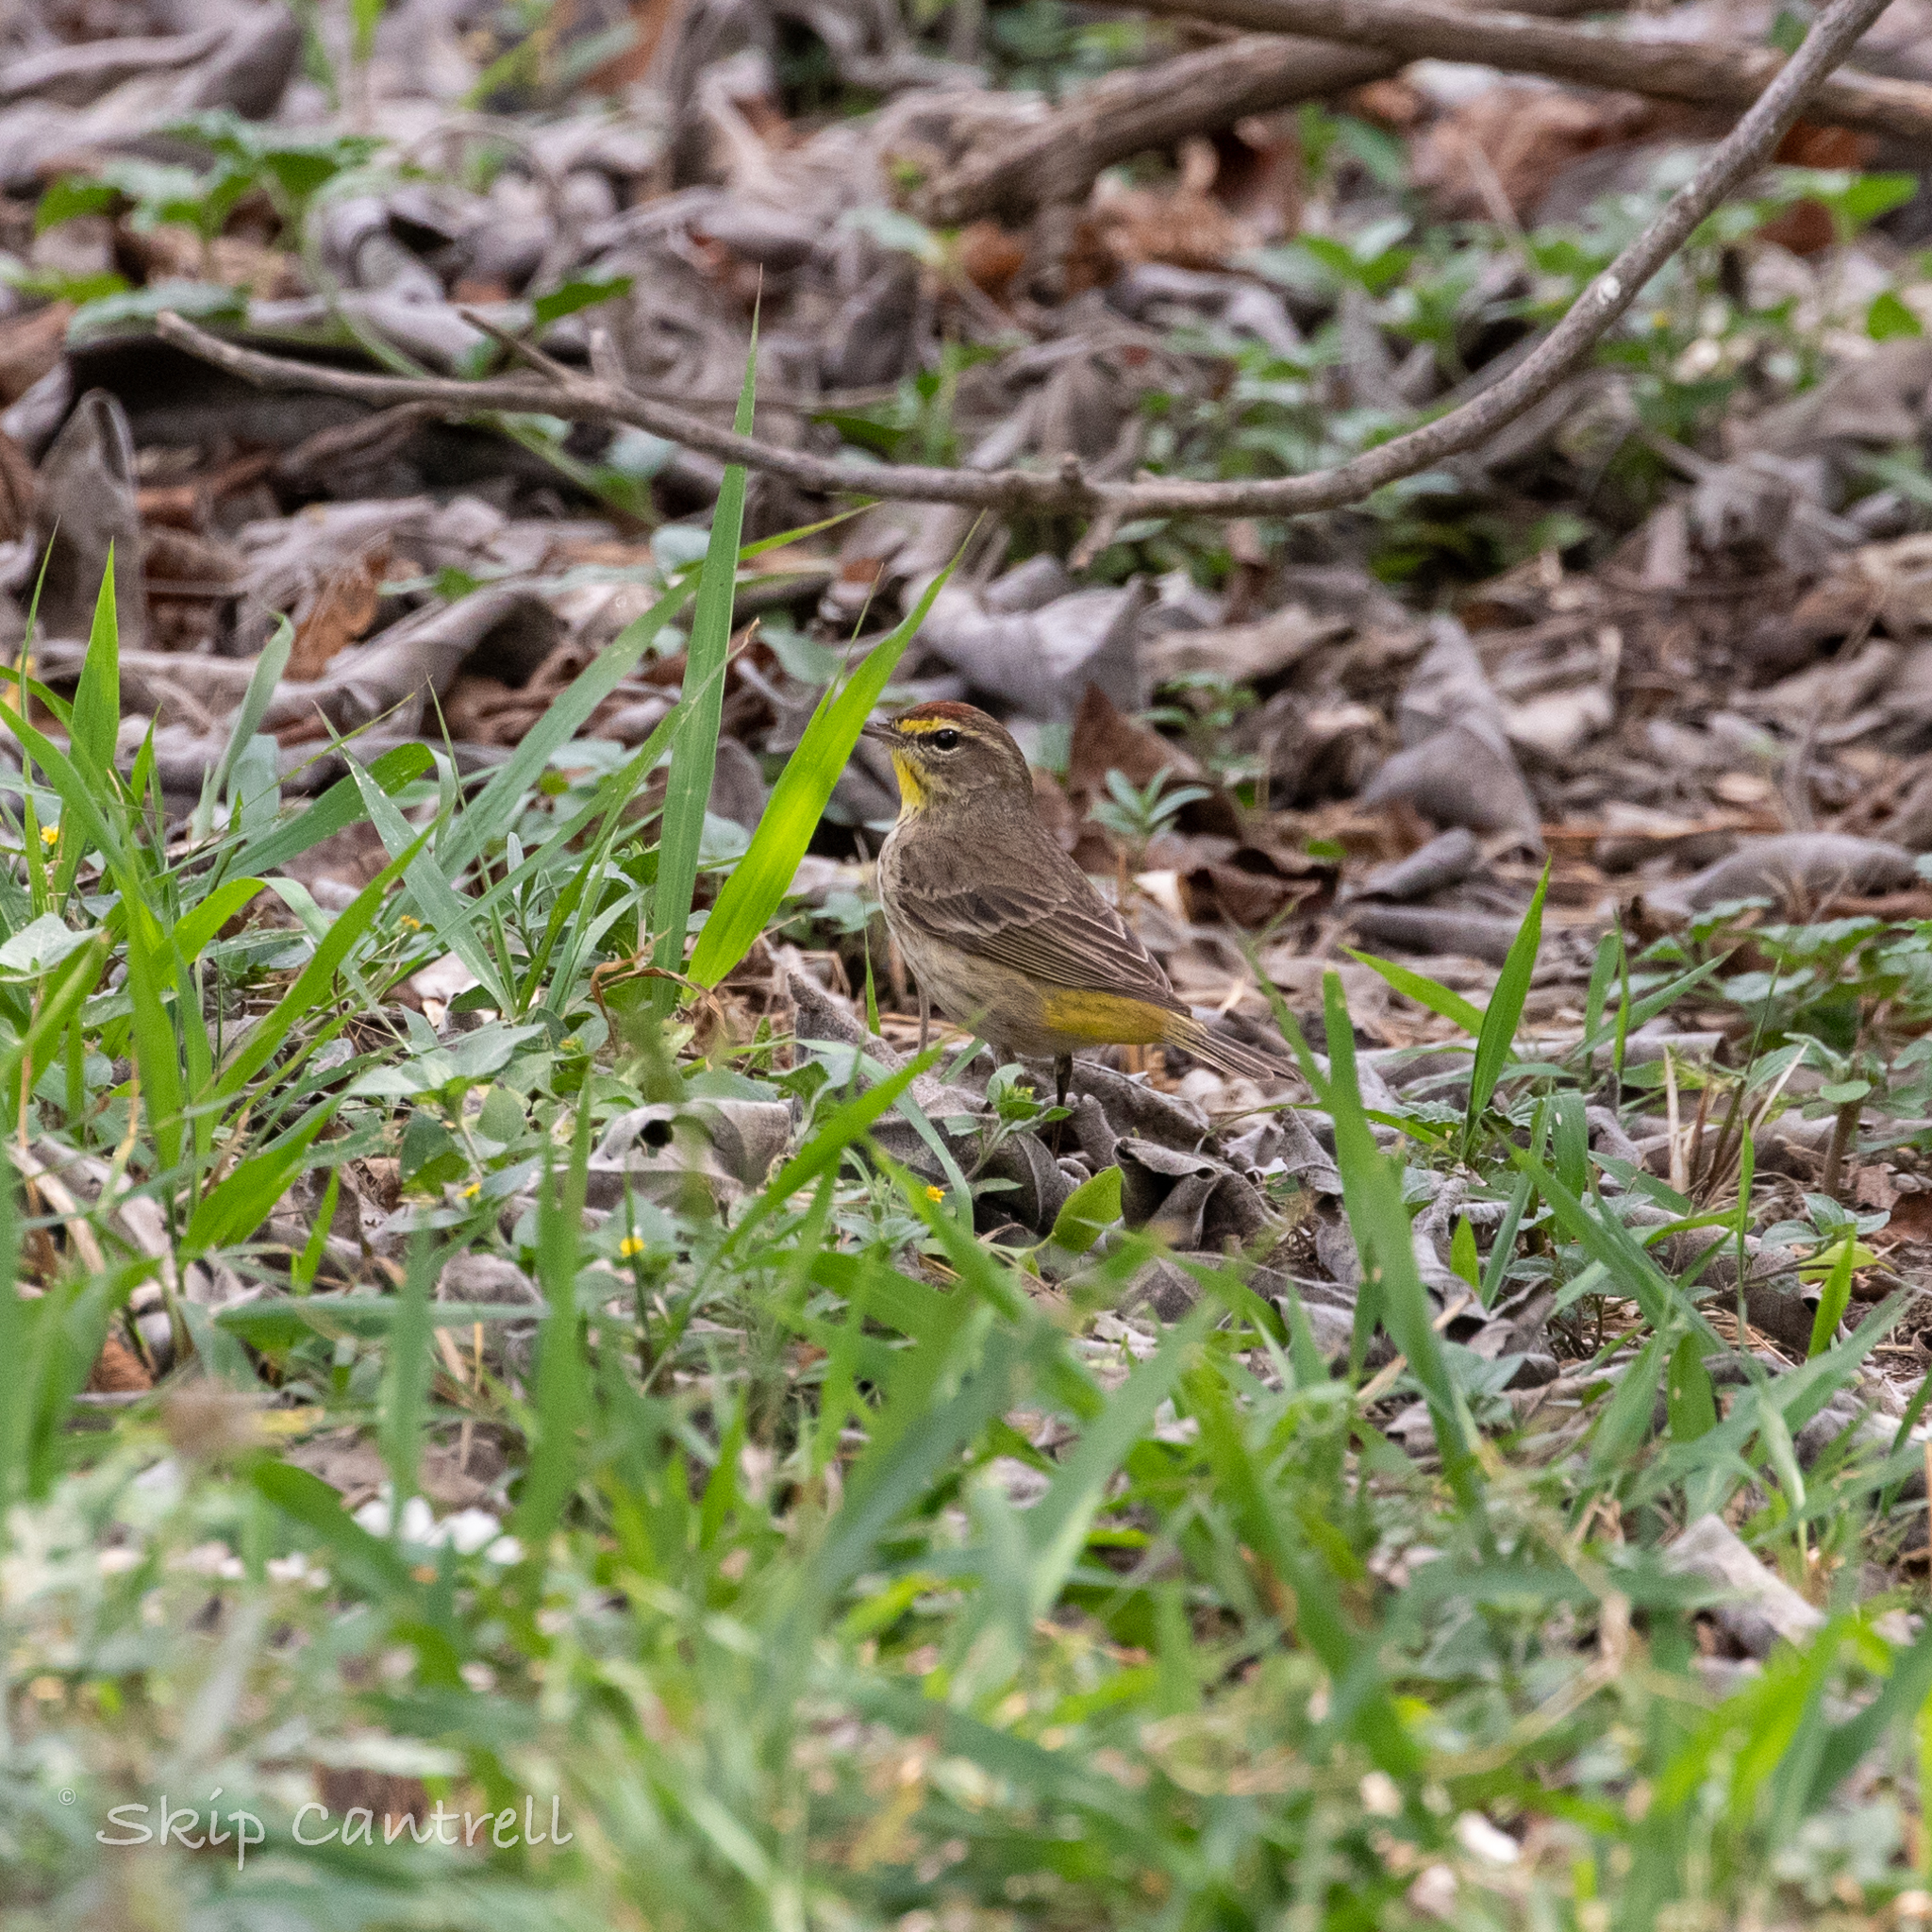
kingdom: Animalia
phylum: Chordata
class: Aves
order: Passeriformes
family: Parulidae
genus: Setophaga
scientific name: Setophaga palmarum
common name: Palm warbler
